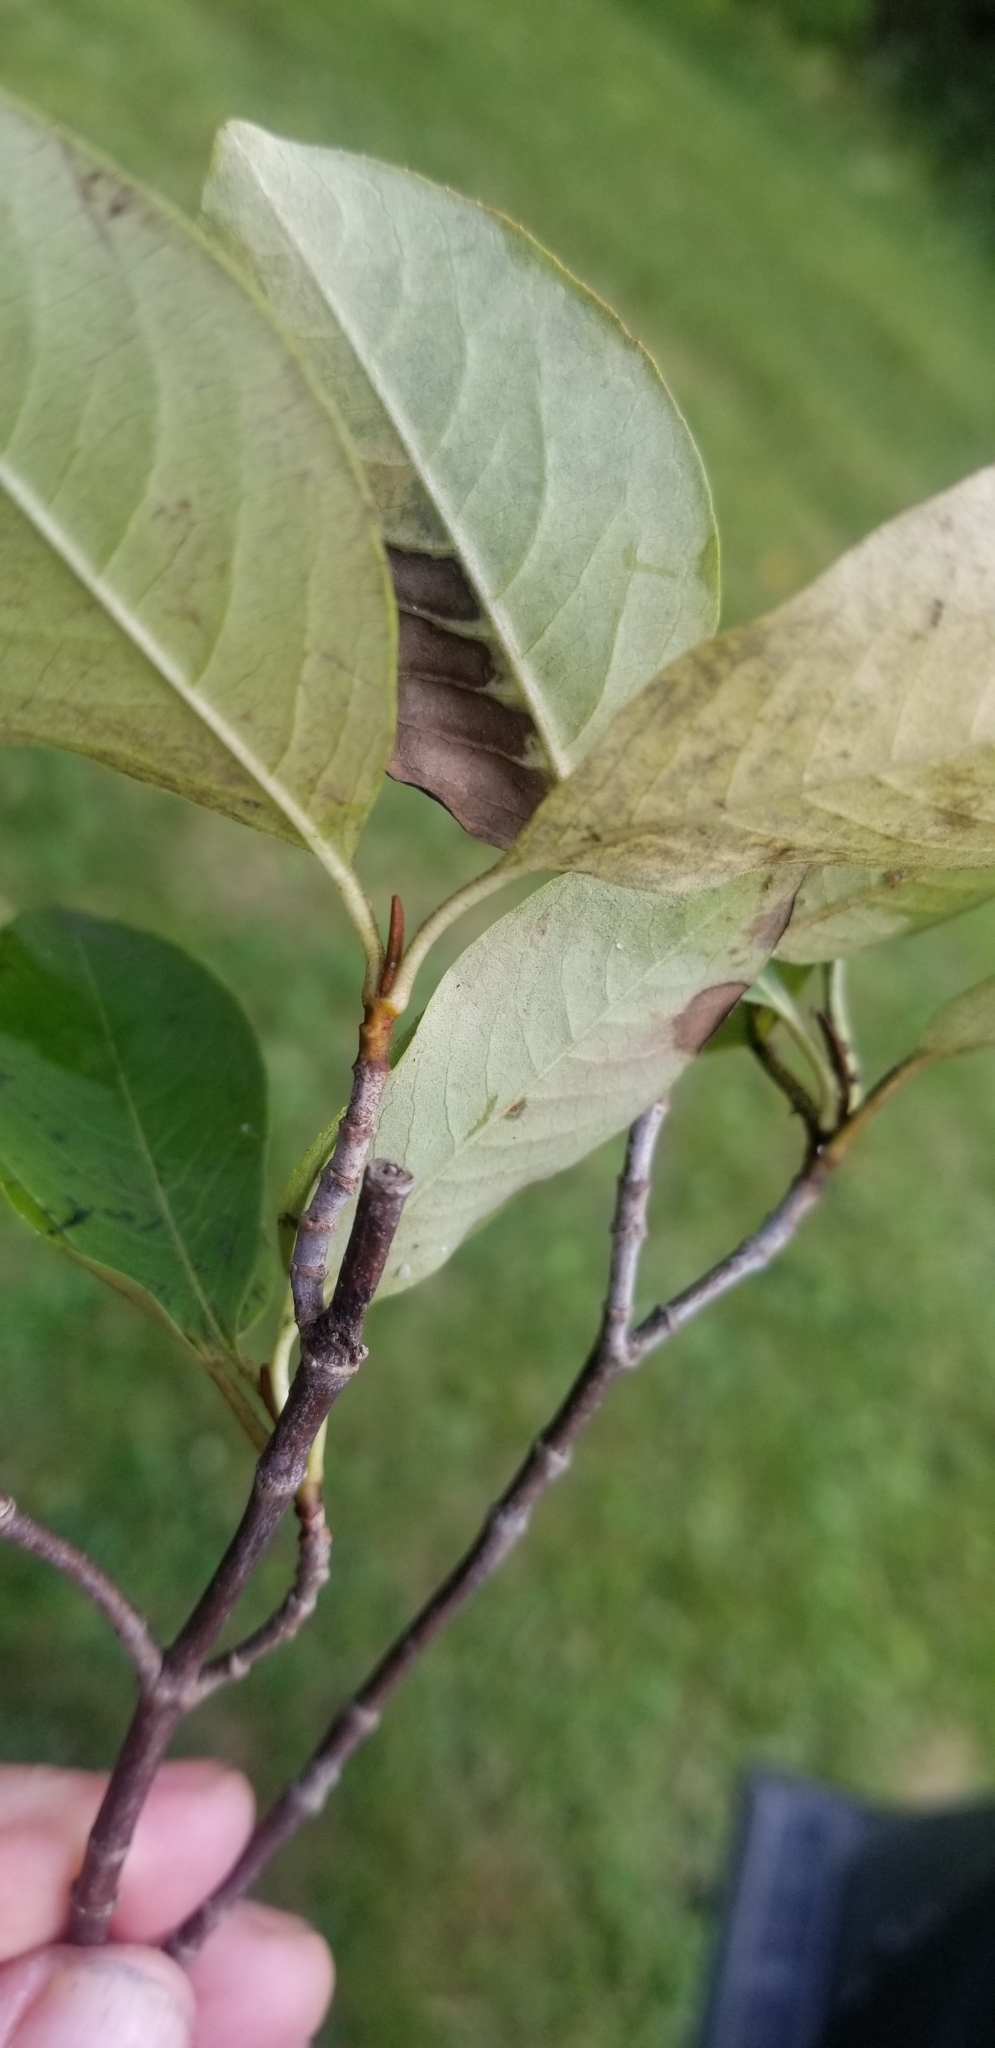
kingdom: Plantae
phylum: Tracheophyta
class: Magnoliopsida
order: Dipsacales
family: Viburnaceae
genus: Viburnum
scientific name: Viburnum cassinoides
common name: Swamp haw
